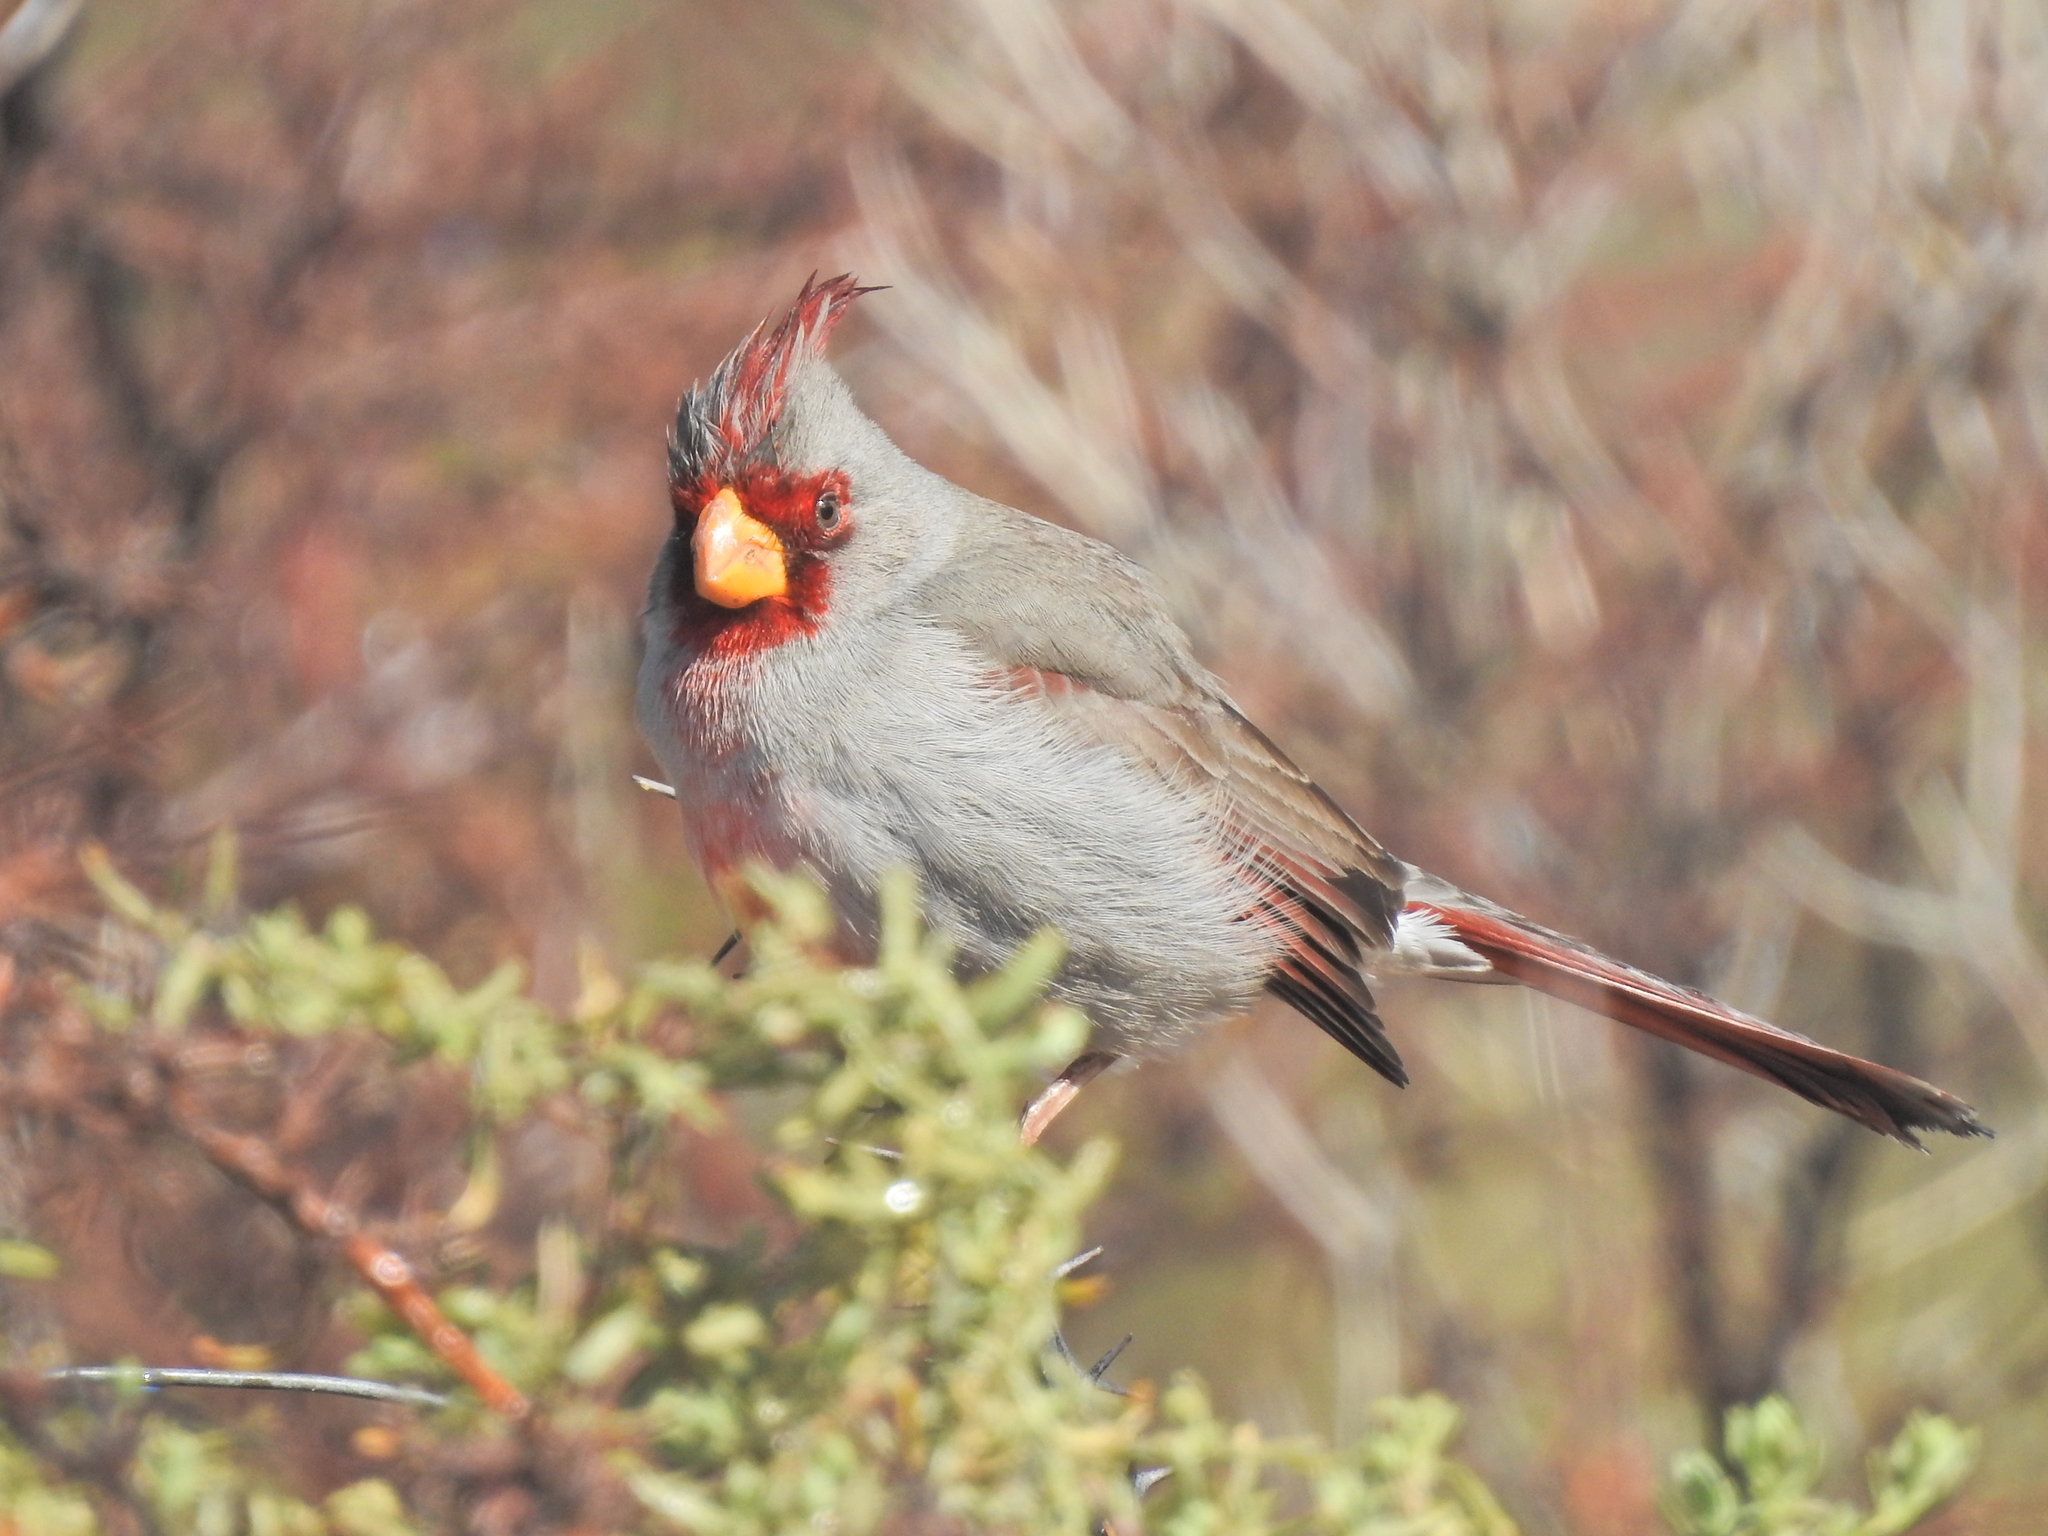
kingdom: Animalia
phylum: Chordata
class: Aves
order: Passeriformes
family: Cardinalidae
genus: Cardinalis
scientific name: Cardinalis sinuatus
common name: Pyrrhuloxia
